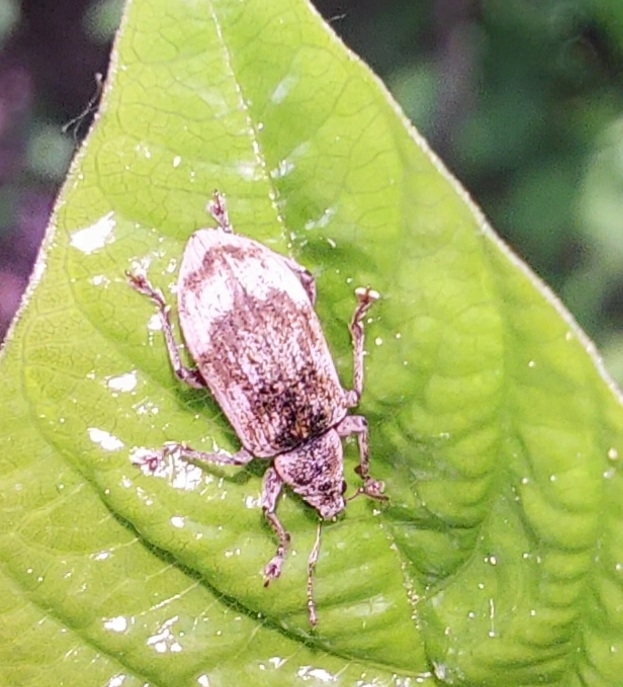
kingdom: Animalia
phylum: Arthropoda
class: Insecta
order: Coleoptera
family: Curculionidae
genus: Polydrusus
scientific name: Polydrusus tereticollis
